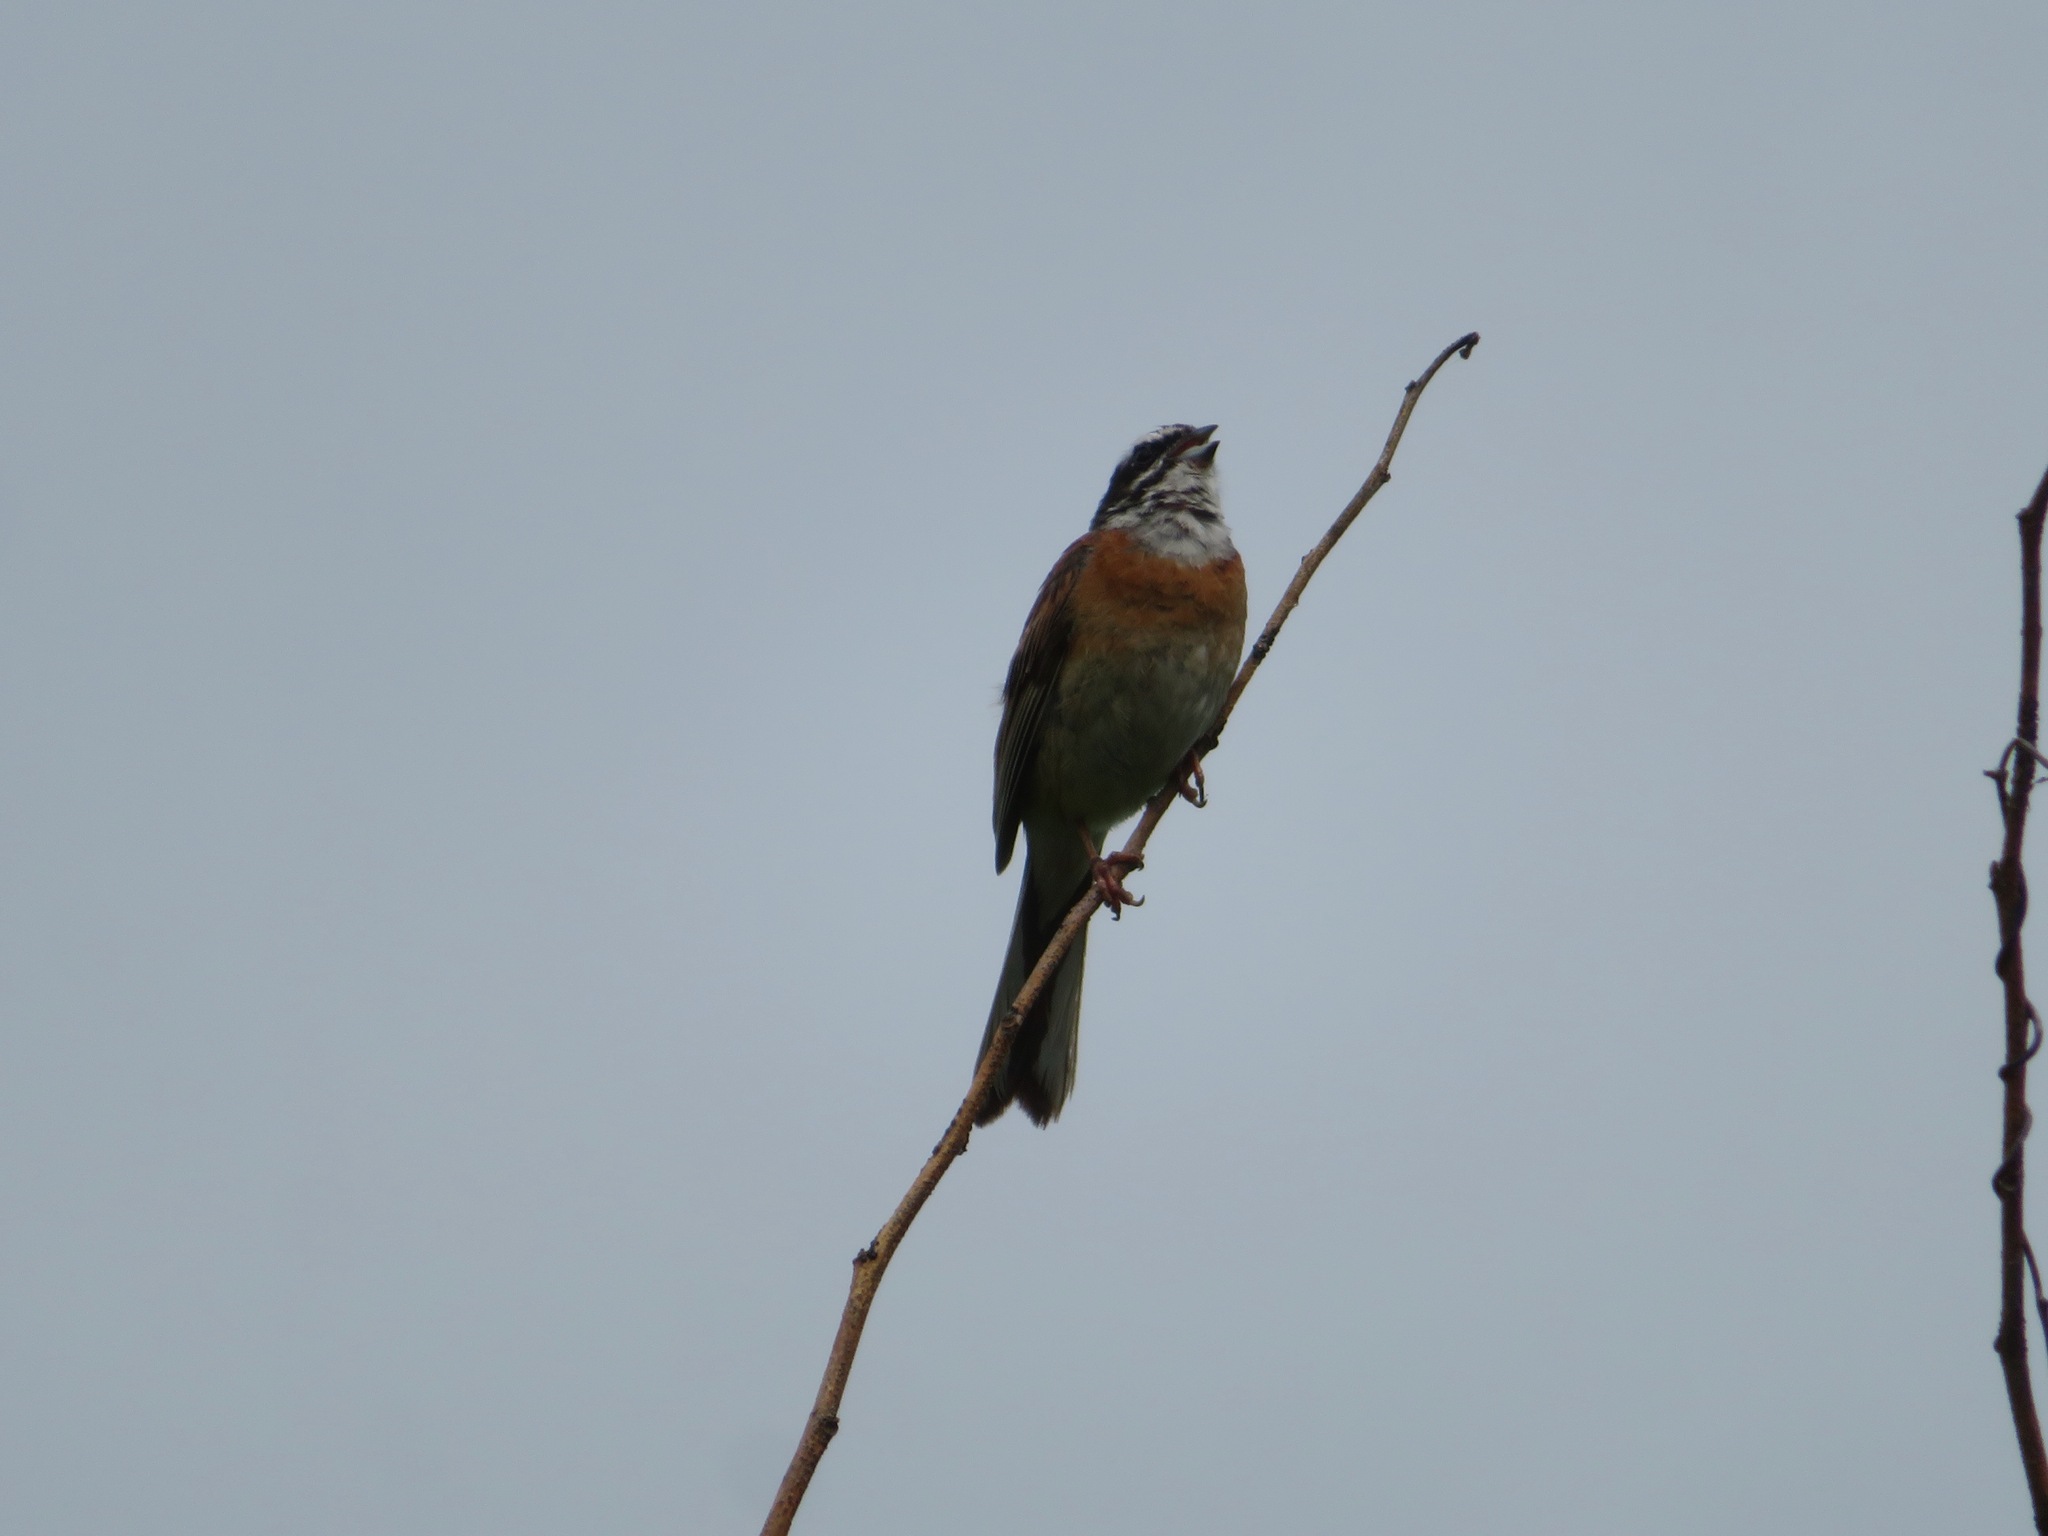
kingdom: Animalia
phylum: Chordata
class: Aves
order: Passeriformes
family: Emberizidae
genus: Emberiza
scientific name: Emberiza cioides
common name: Meadow bunting
